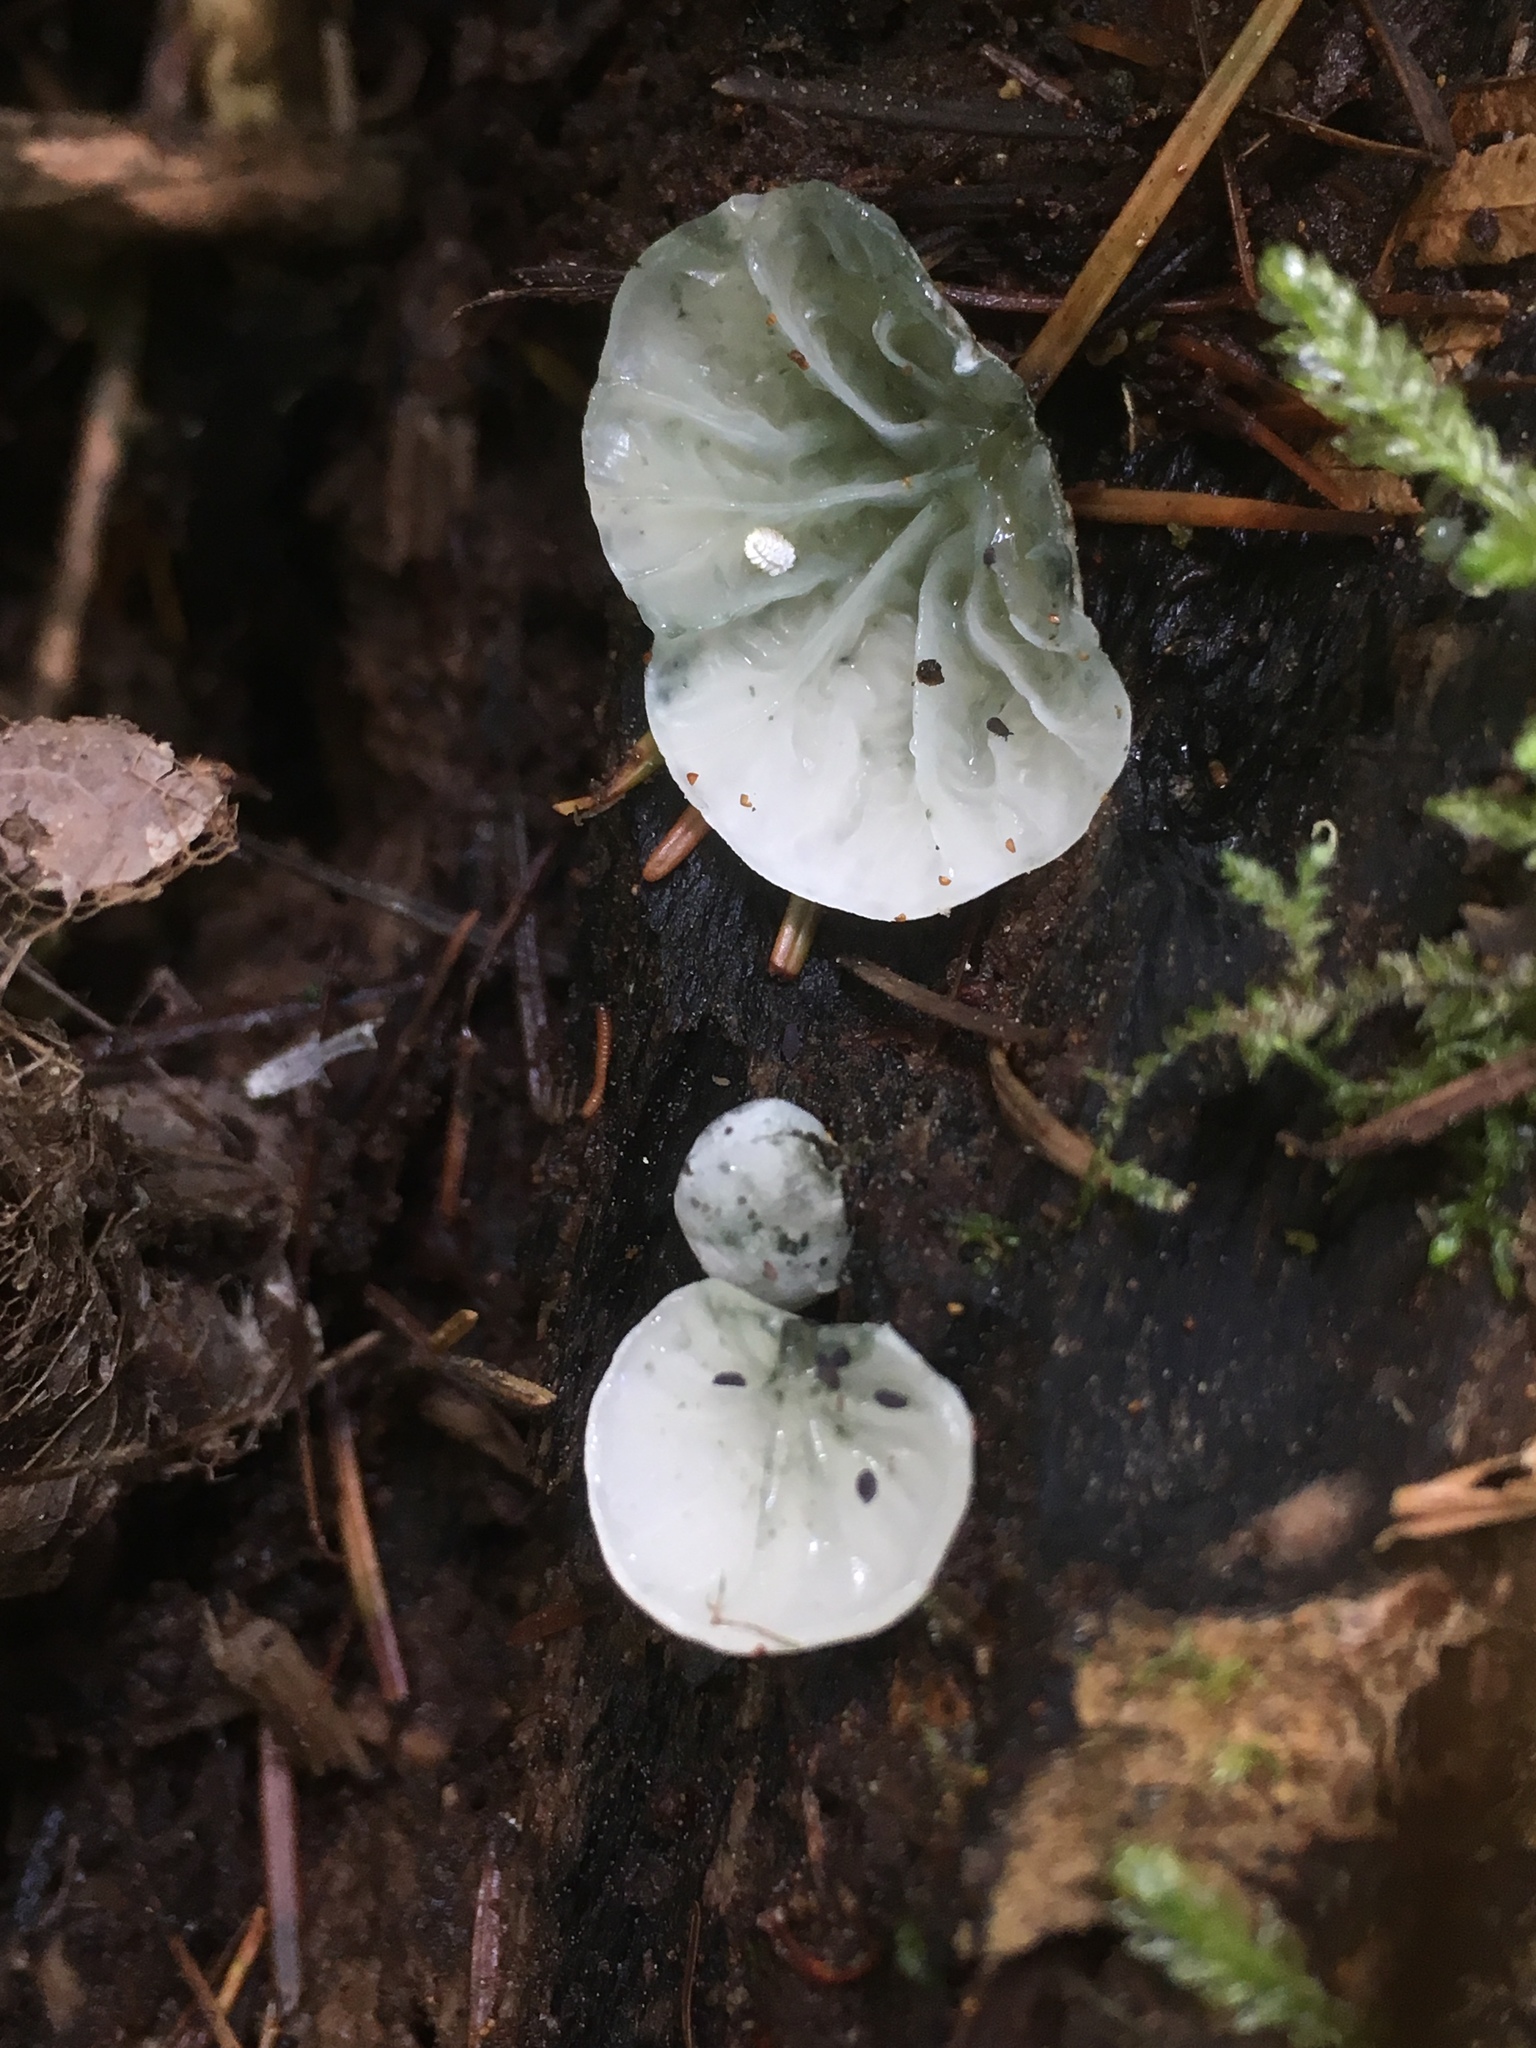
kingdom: Fungi
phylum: Basidiomycota
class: Agaricomycetes
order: Agaricales
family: Marasmiaceae
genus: Campanella
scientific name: Campanella tristis
